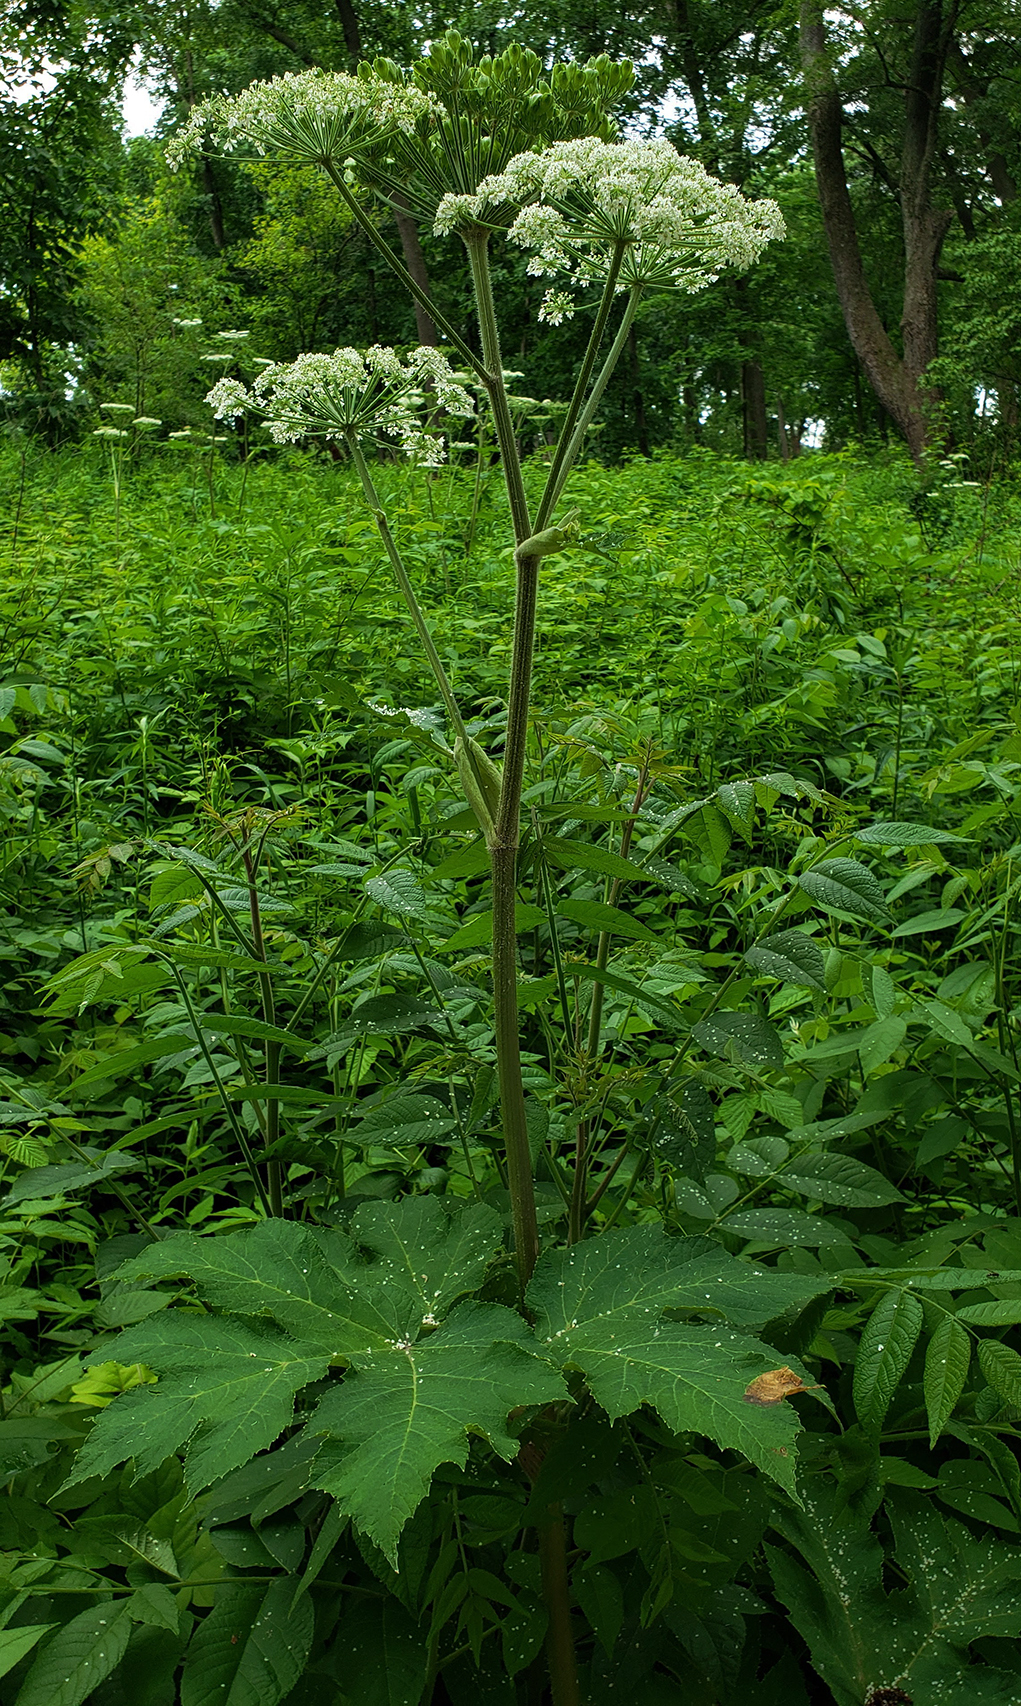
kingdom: Plantae
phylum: Tracheophyta
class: Magnoliopsida
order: Apiales
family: Apiaceae
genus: Heracleum
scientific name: Heracleum maximum
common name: American cow parsnip
